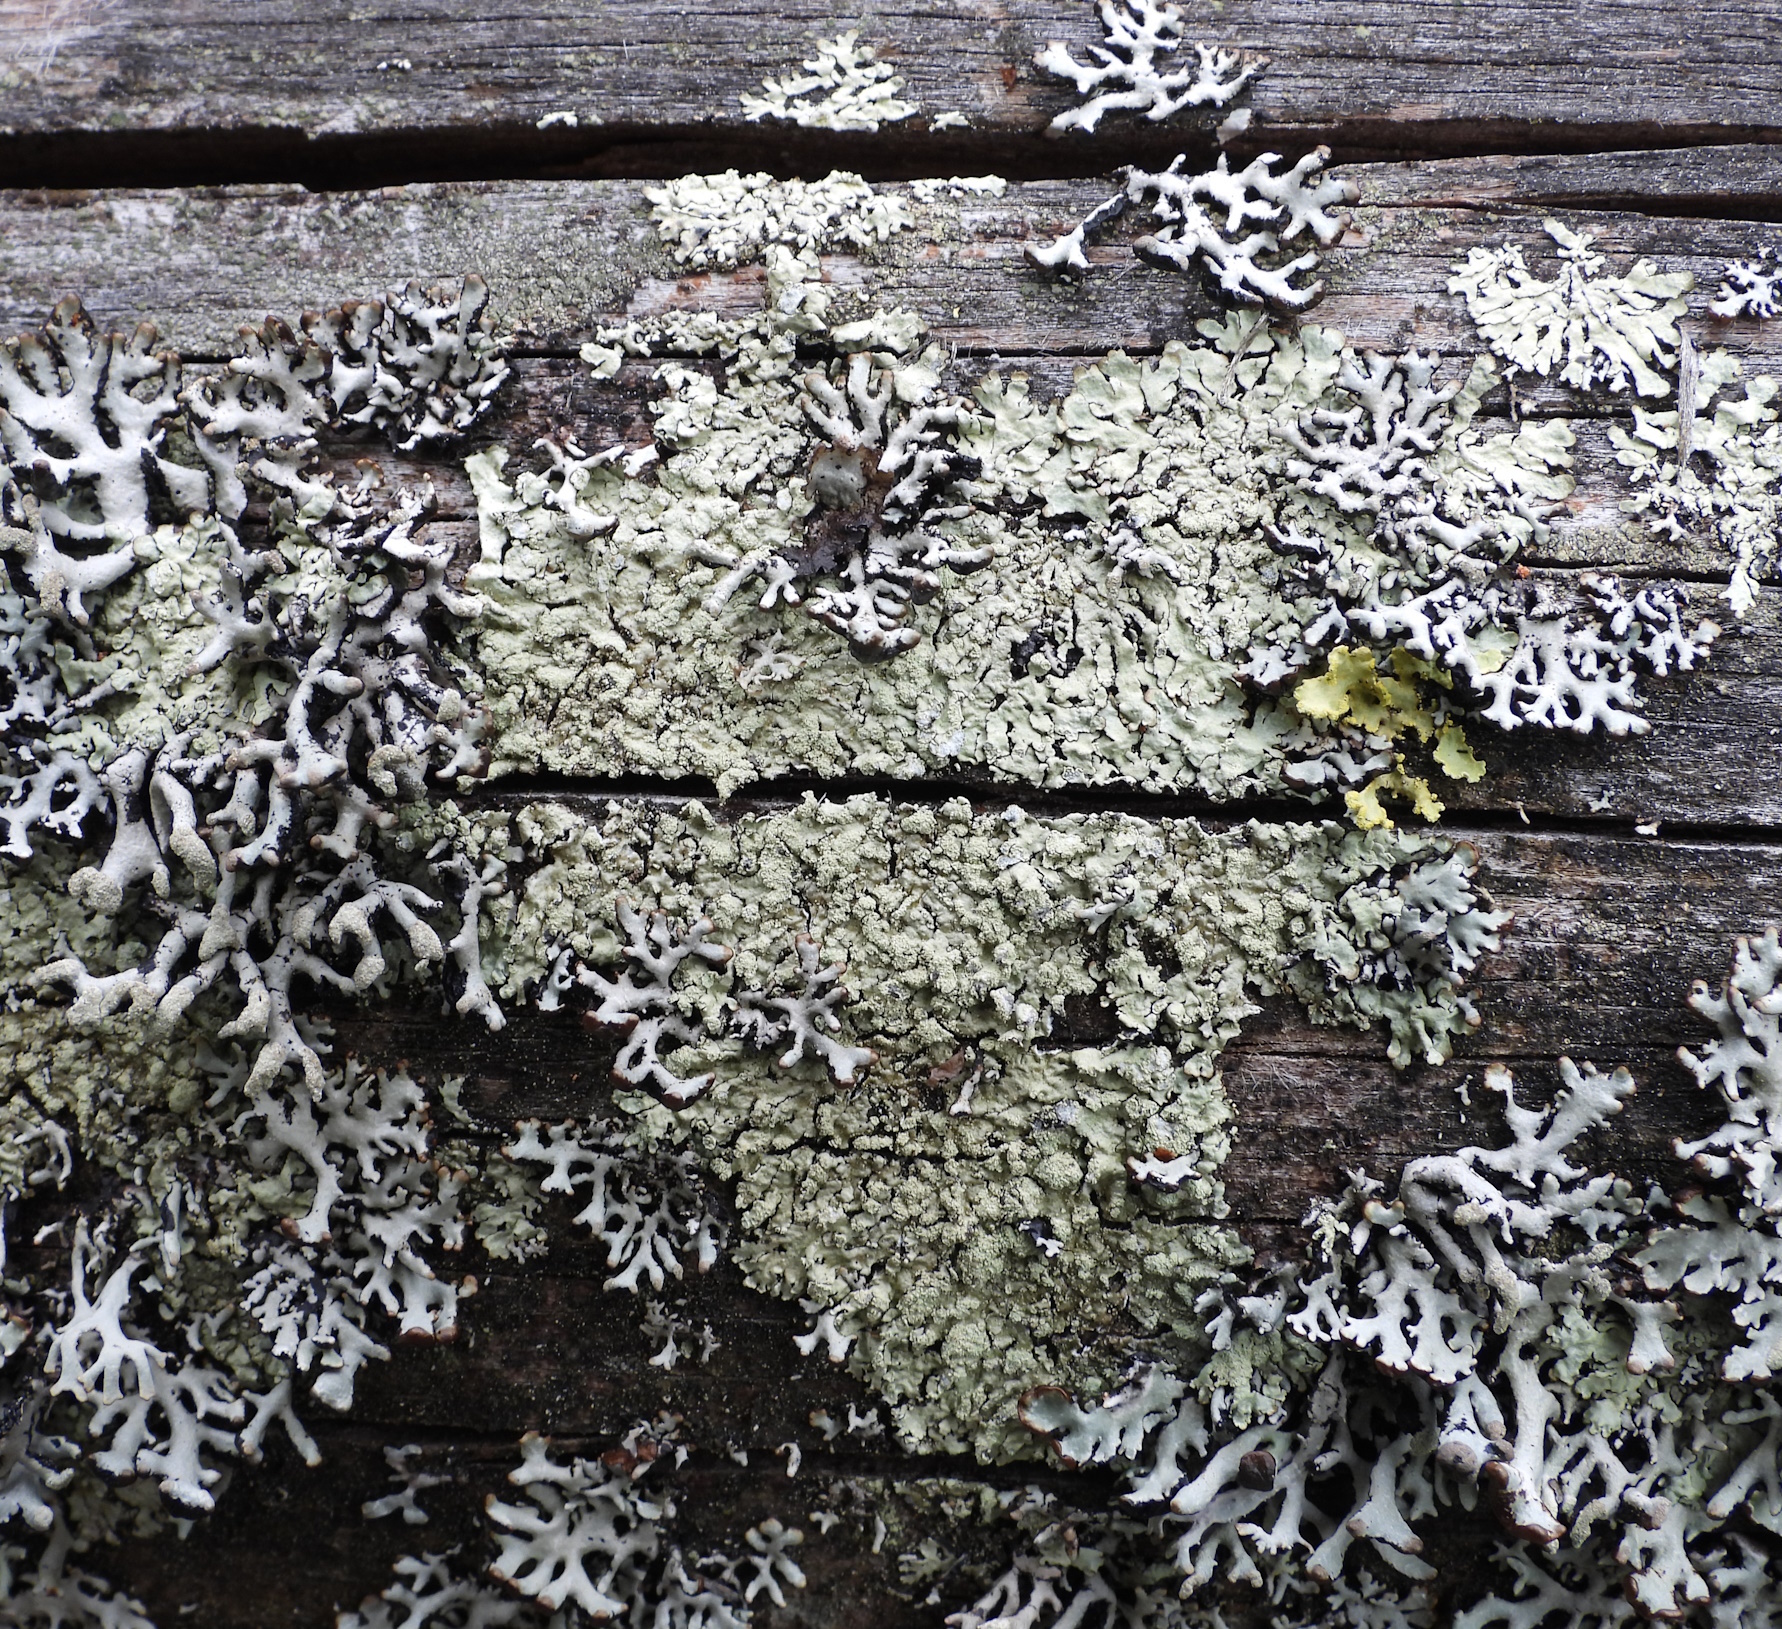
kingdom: Fungi
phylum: Ascomycota
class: Lecanoromycetes
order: Lecanorales
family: Parmeliaceae
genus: Parmeliopsis
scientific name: Parmeliopsis ambigua
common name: Green starburst lichen
